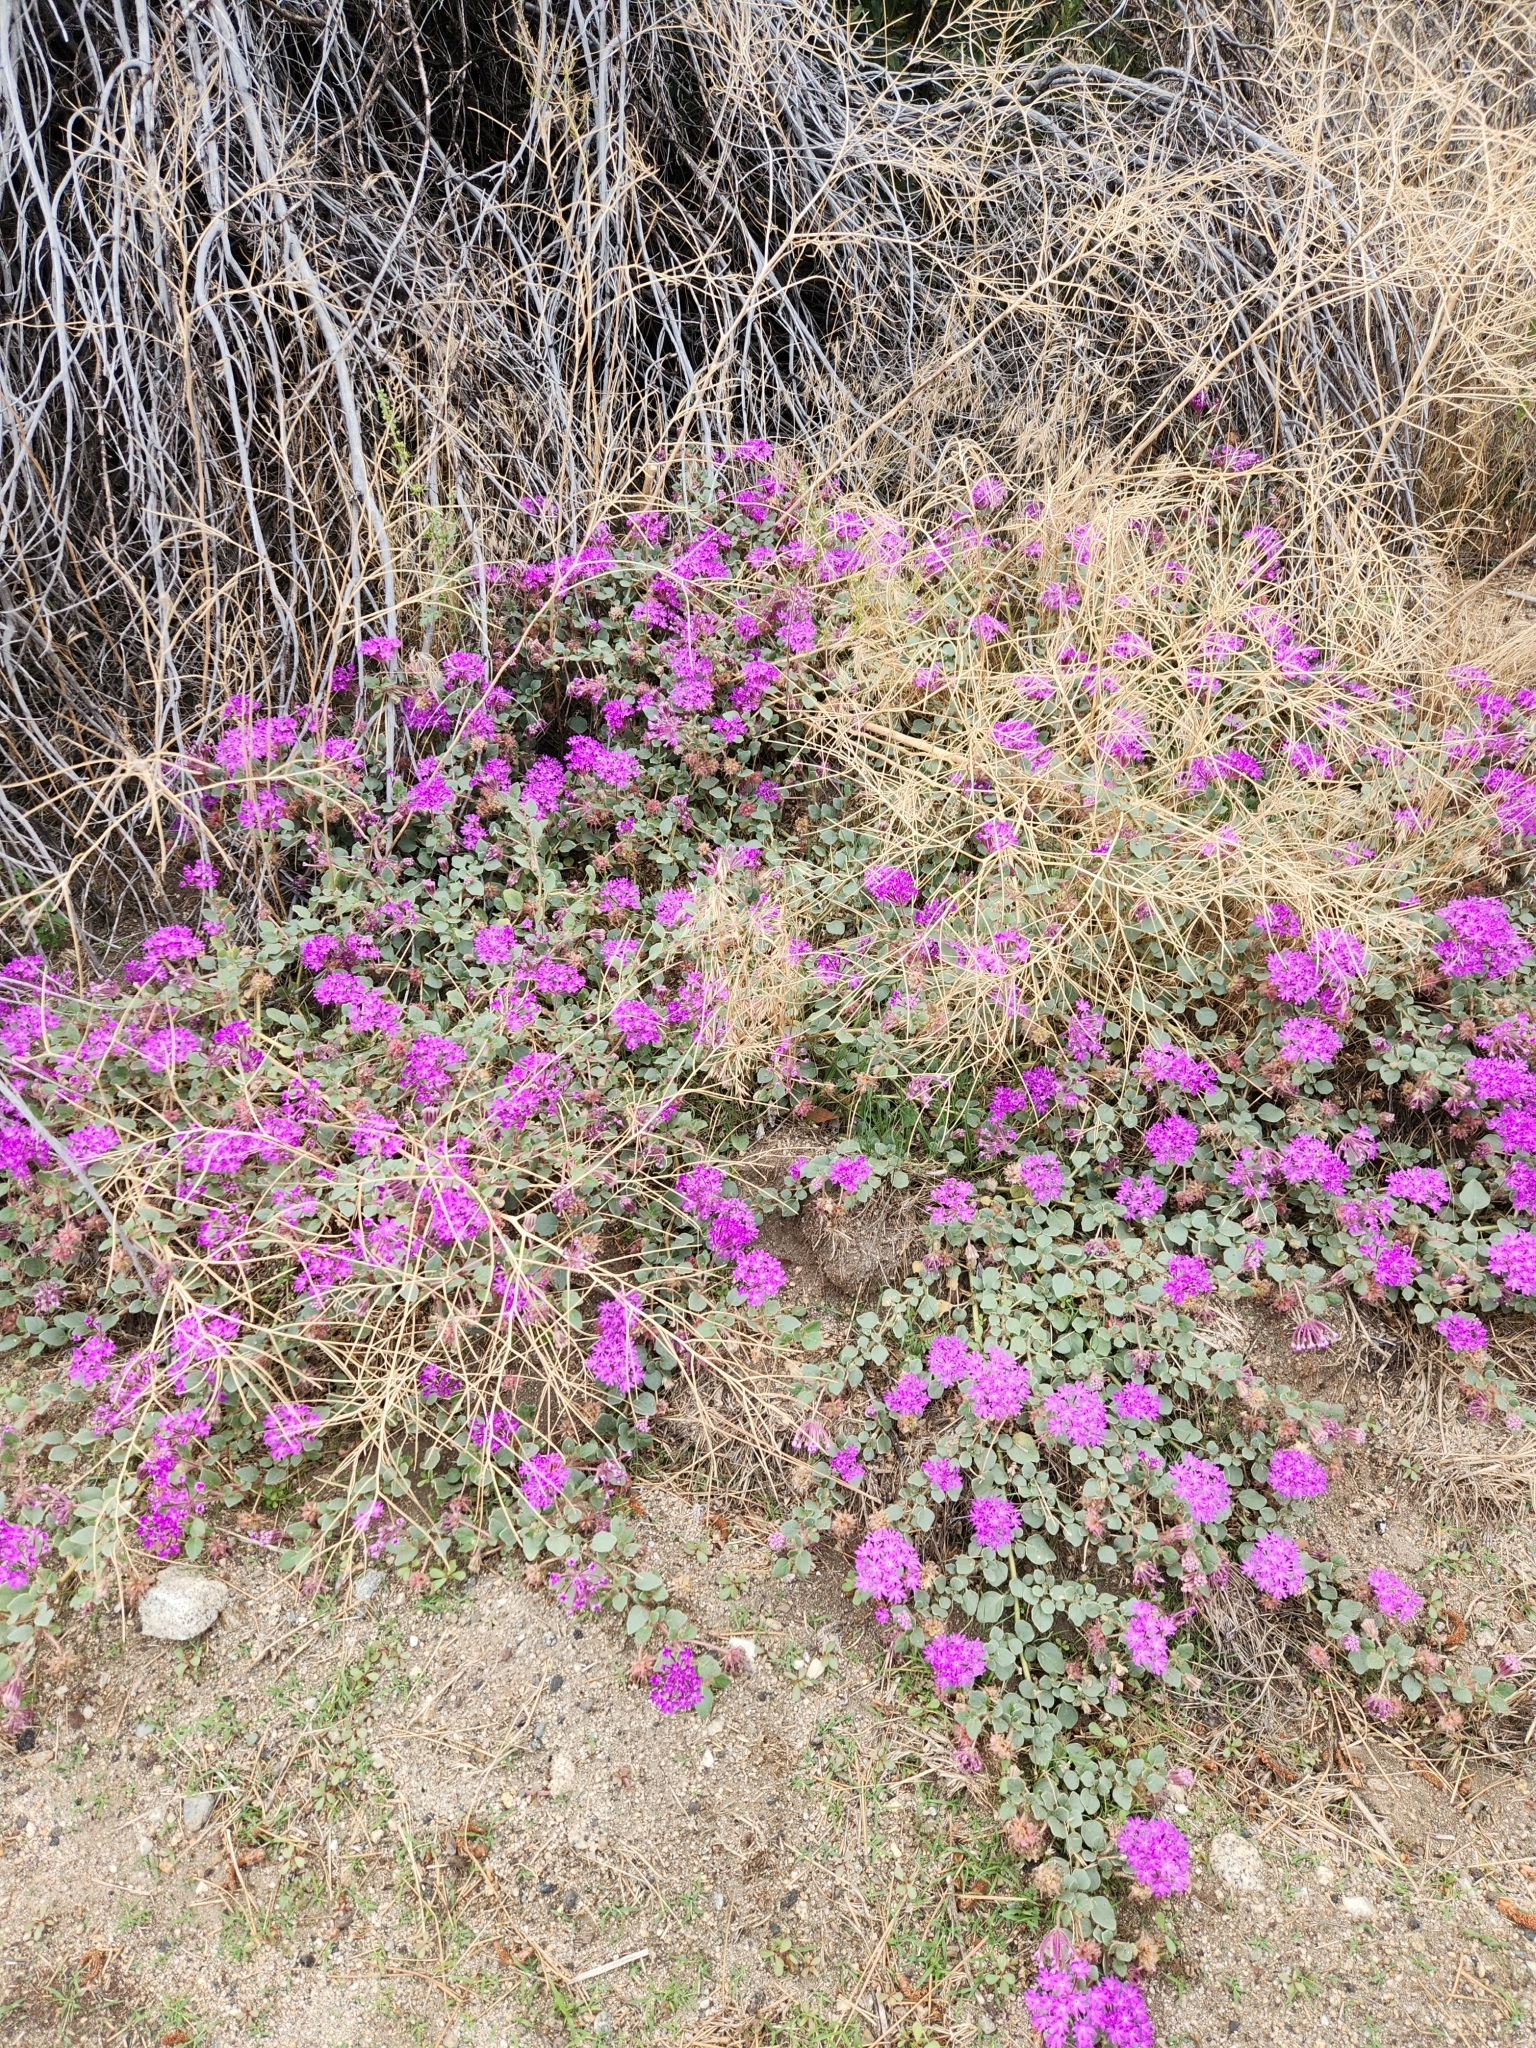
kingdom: Plantae
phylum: Tracheophyta
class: Magnoliopsida
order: Caryophyllales
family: Nyctaginaceae
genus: Abronia
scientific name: Abronia villosa
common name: Desert sand-verbena
